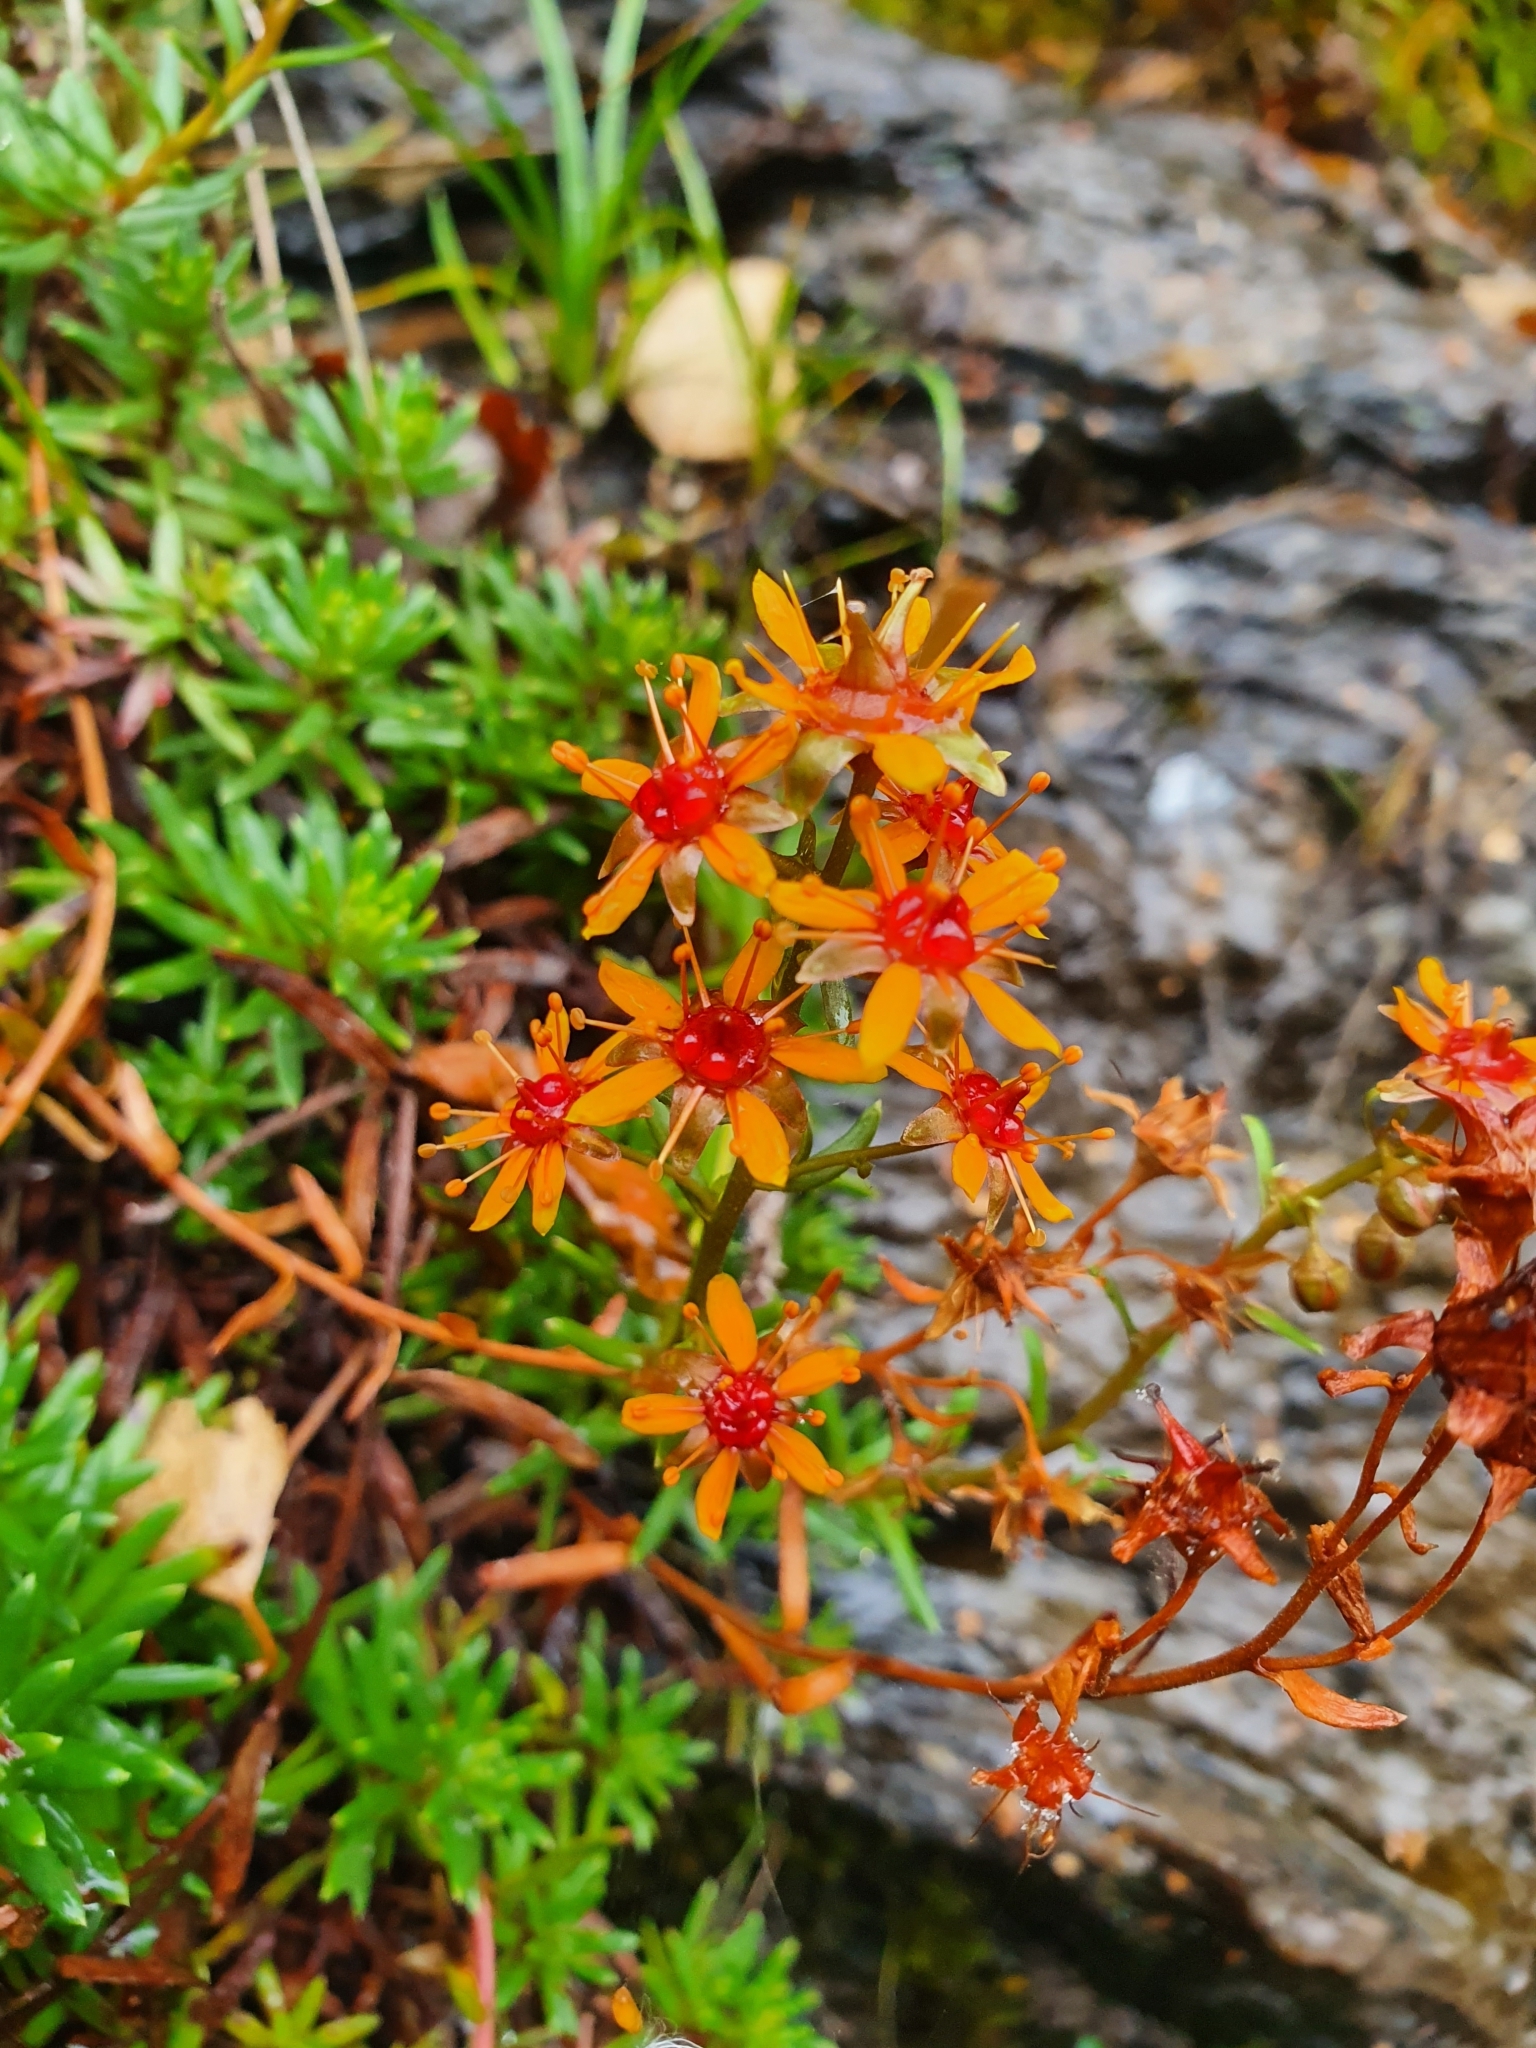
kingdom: Plantae
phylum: Tracheophyta
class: Magnoliopsida
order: Saxifragales
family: Saxifragaceae
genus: Saxifraga
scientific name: Saxifraga aizoides
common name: Yellow mountain saxifrage
